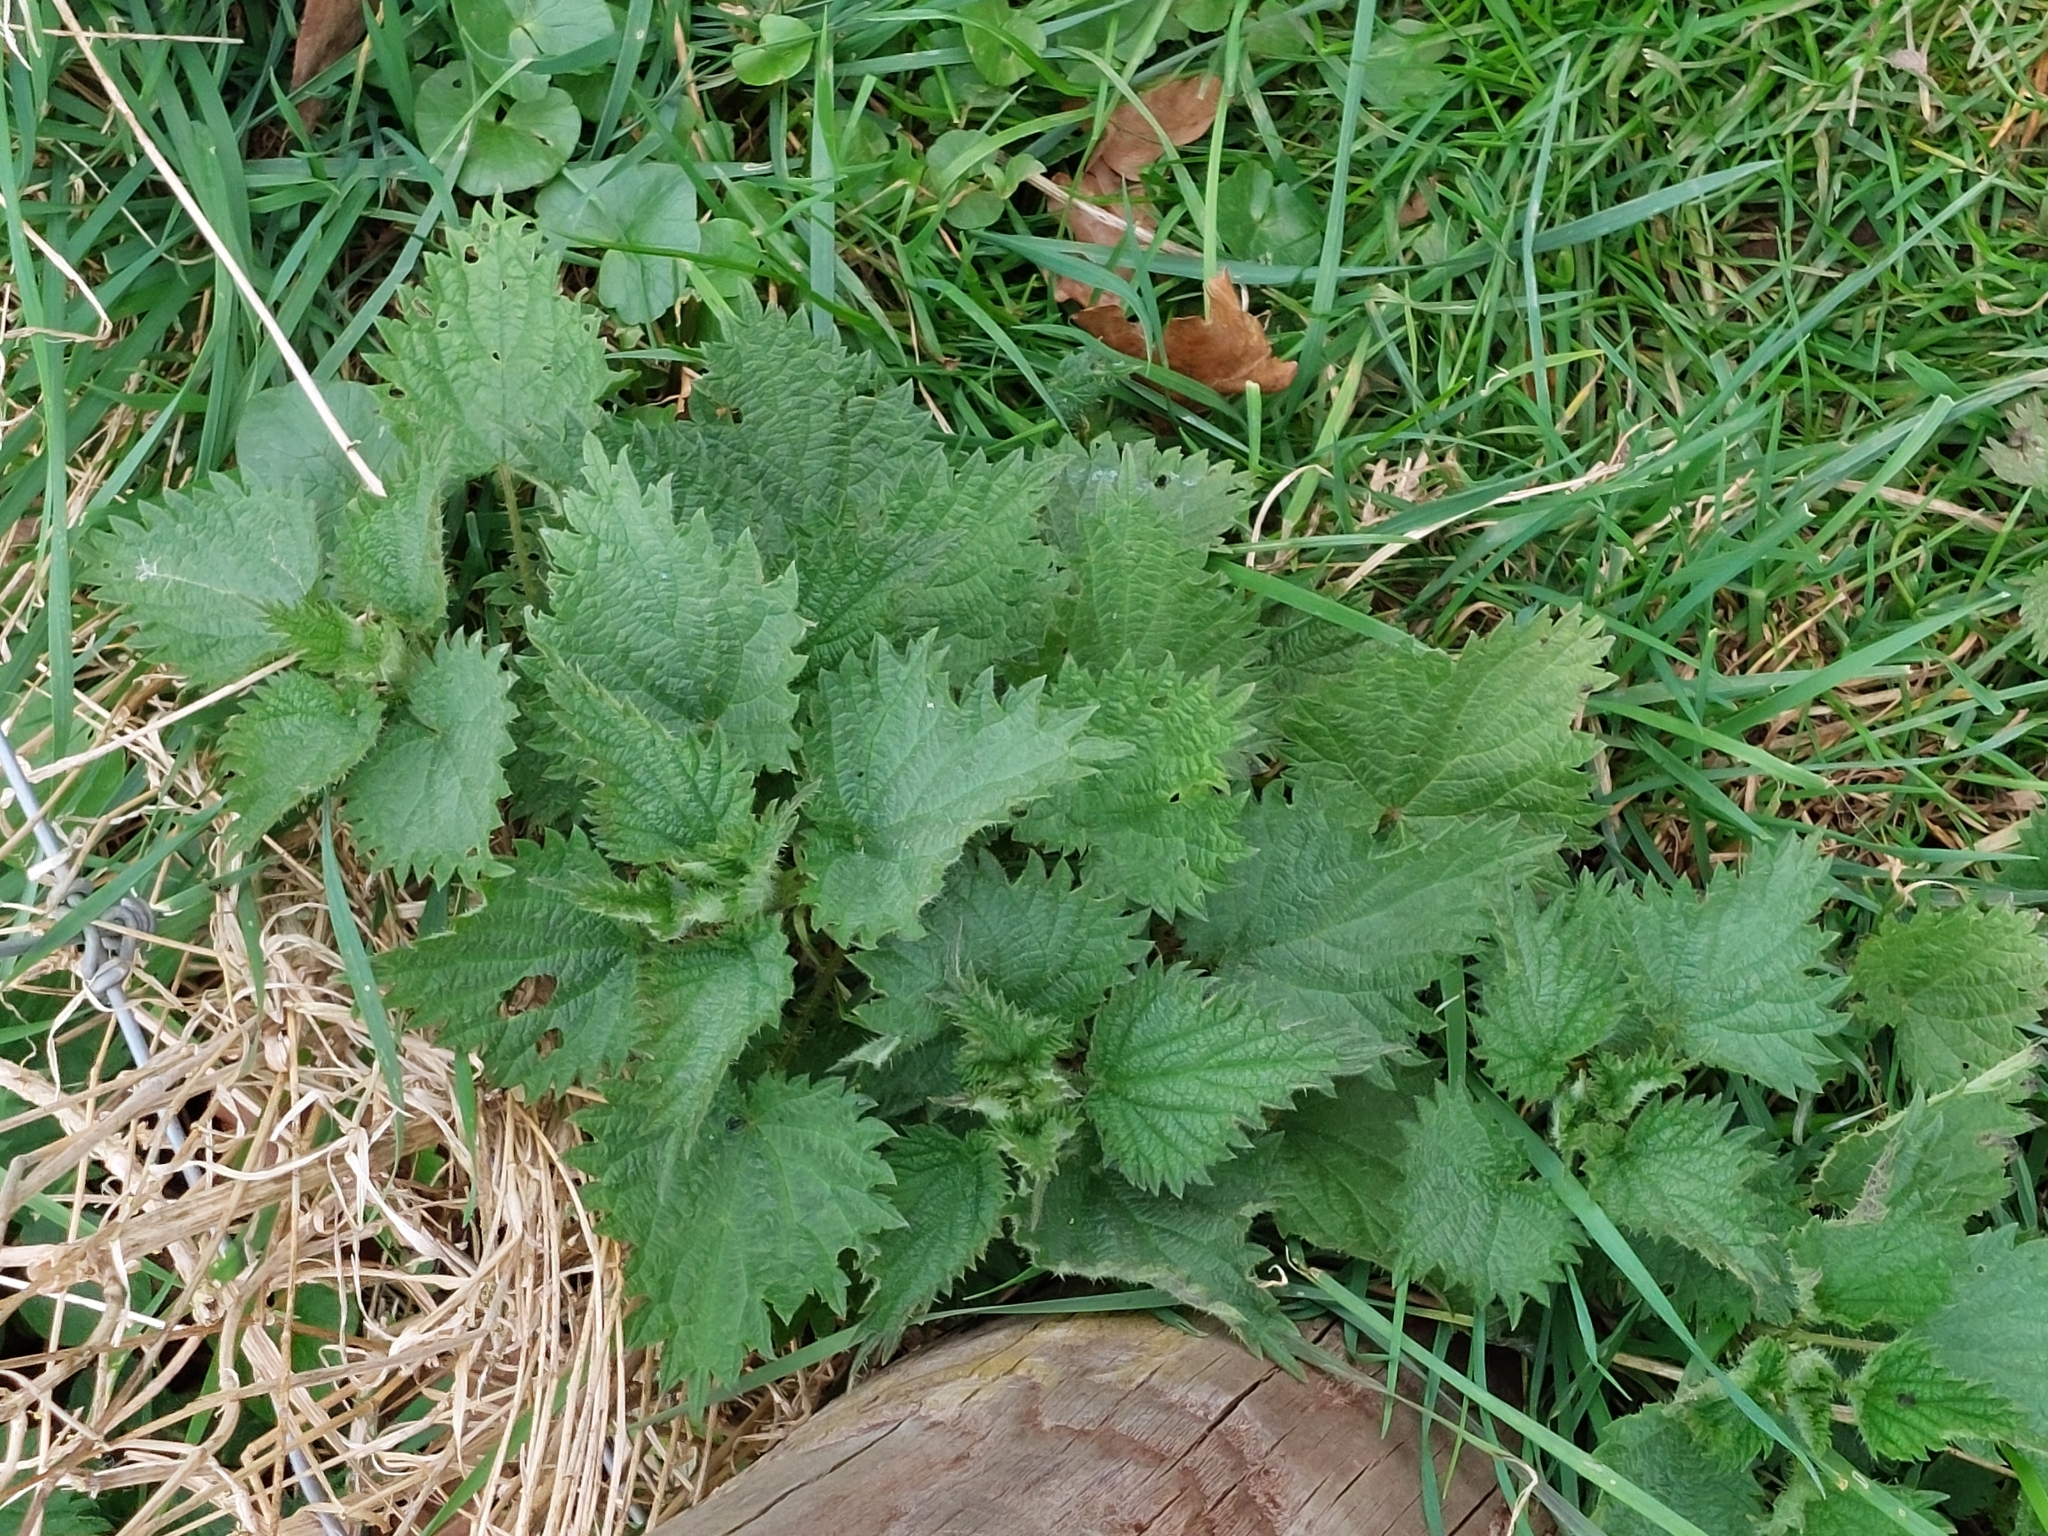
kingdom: Plantae
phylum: Tracheophyta
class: Magnoliopsida
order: Rosales
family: Urticaceae
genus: Urtica
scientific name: Urtica dioica
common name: Common nettle
